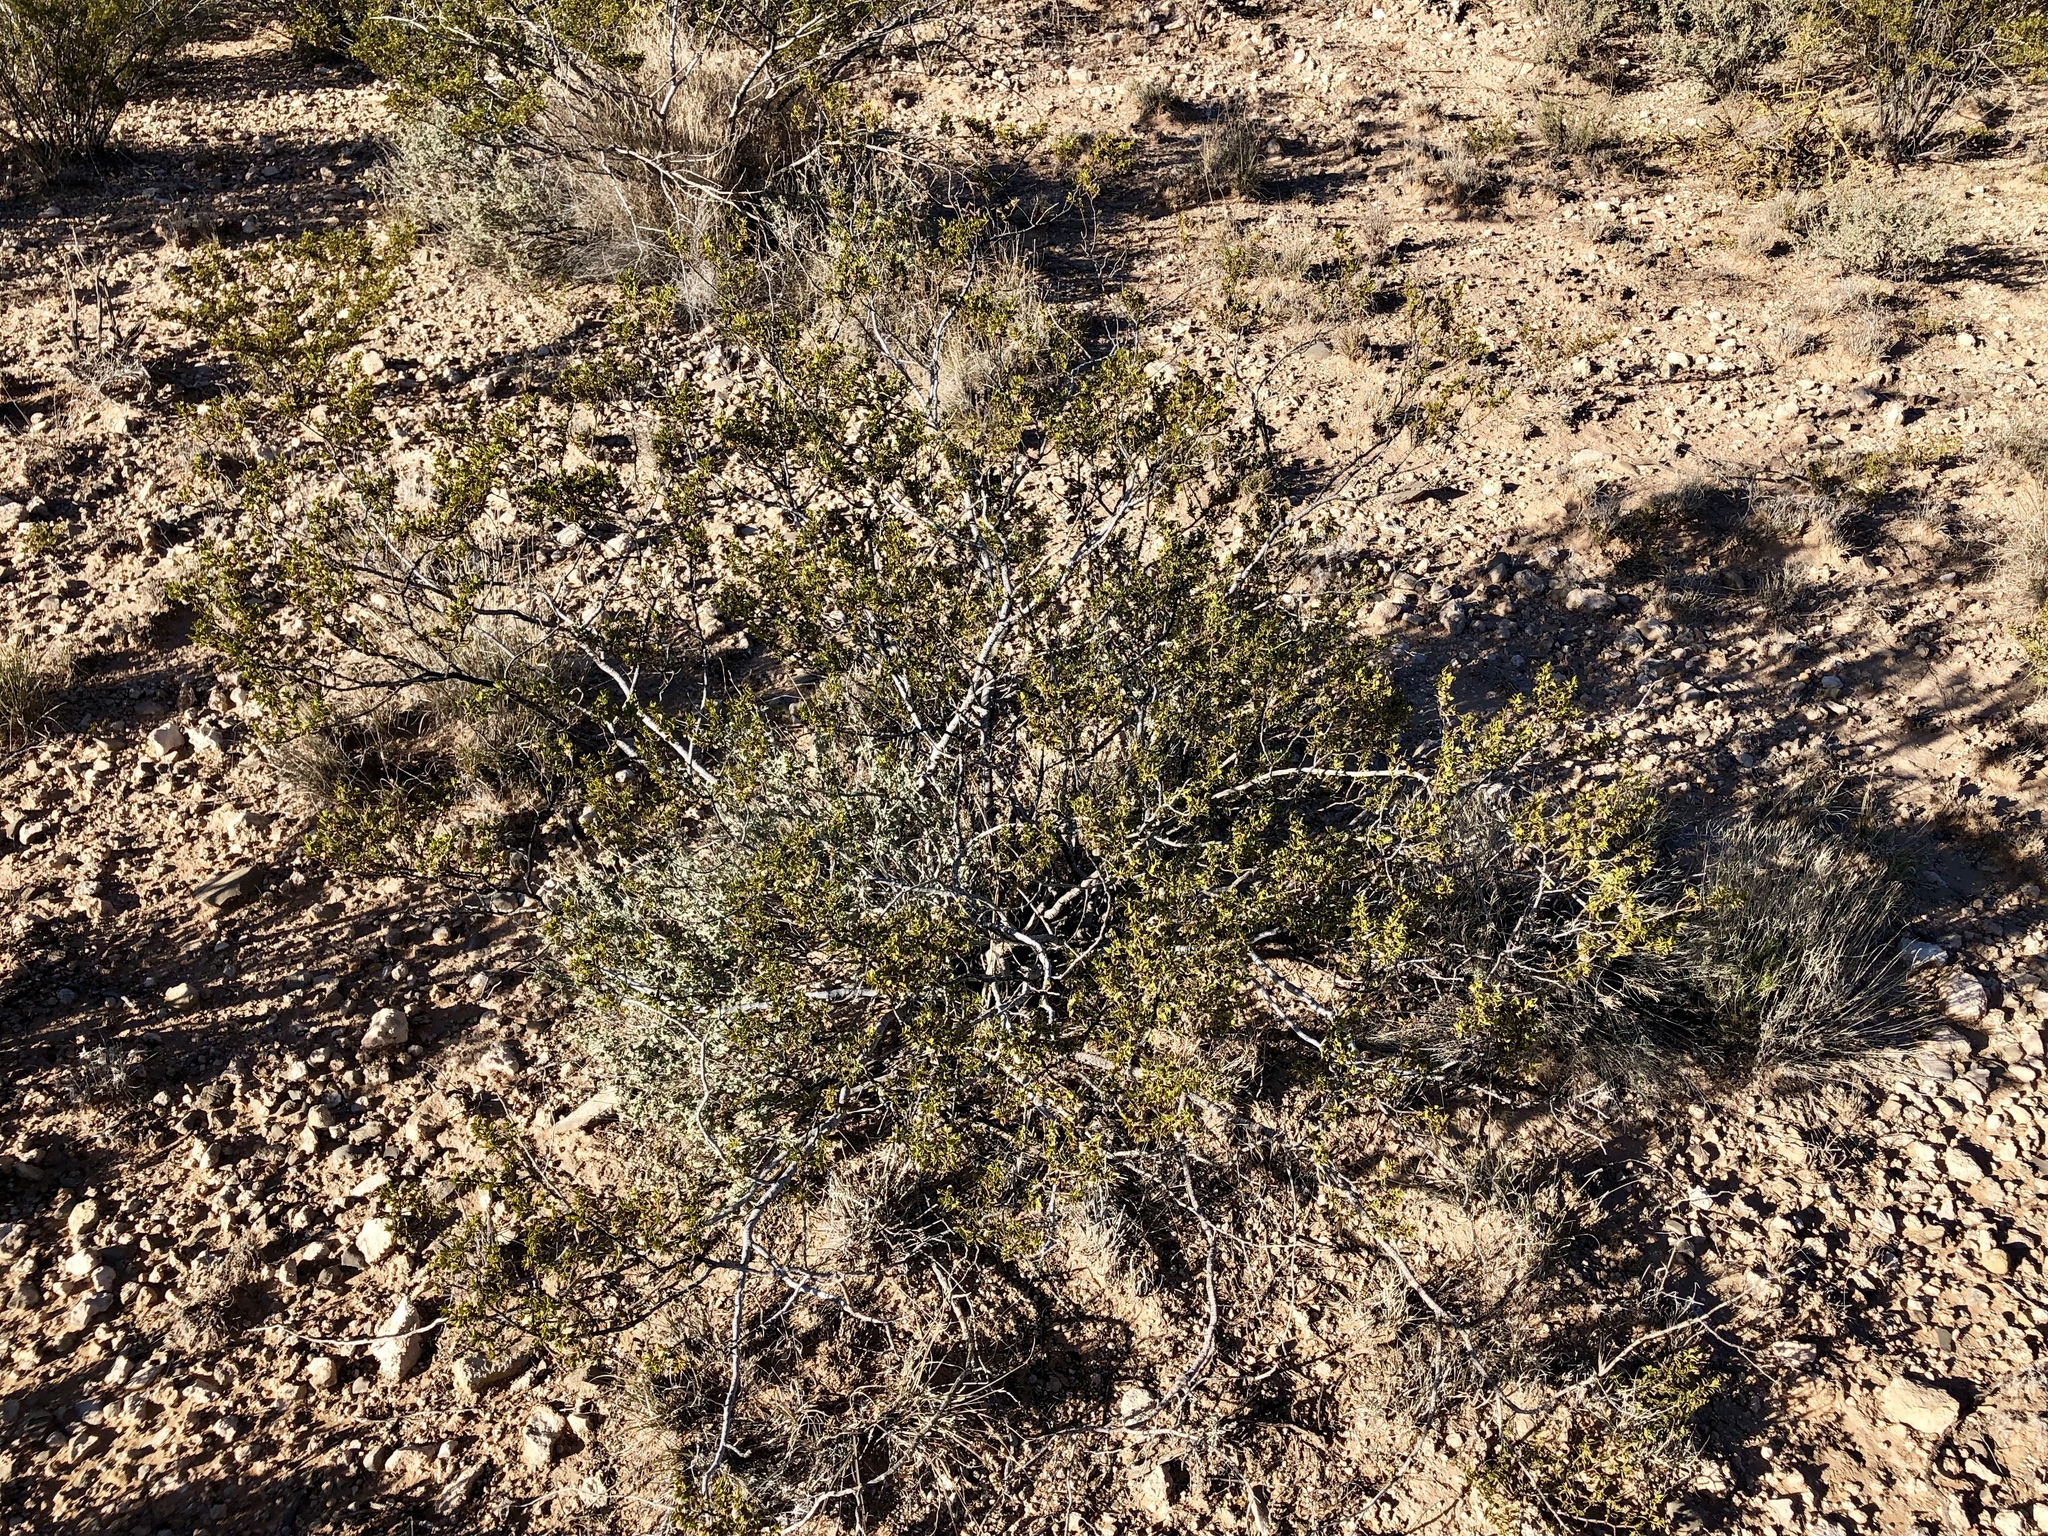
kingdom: Plantae
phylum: Tracheophyta
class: Magnoliopsida
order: Zygophyllales
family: Zygophyllaceae
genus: Larrea
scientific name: Larrea tridentata
